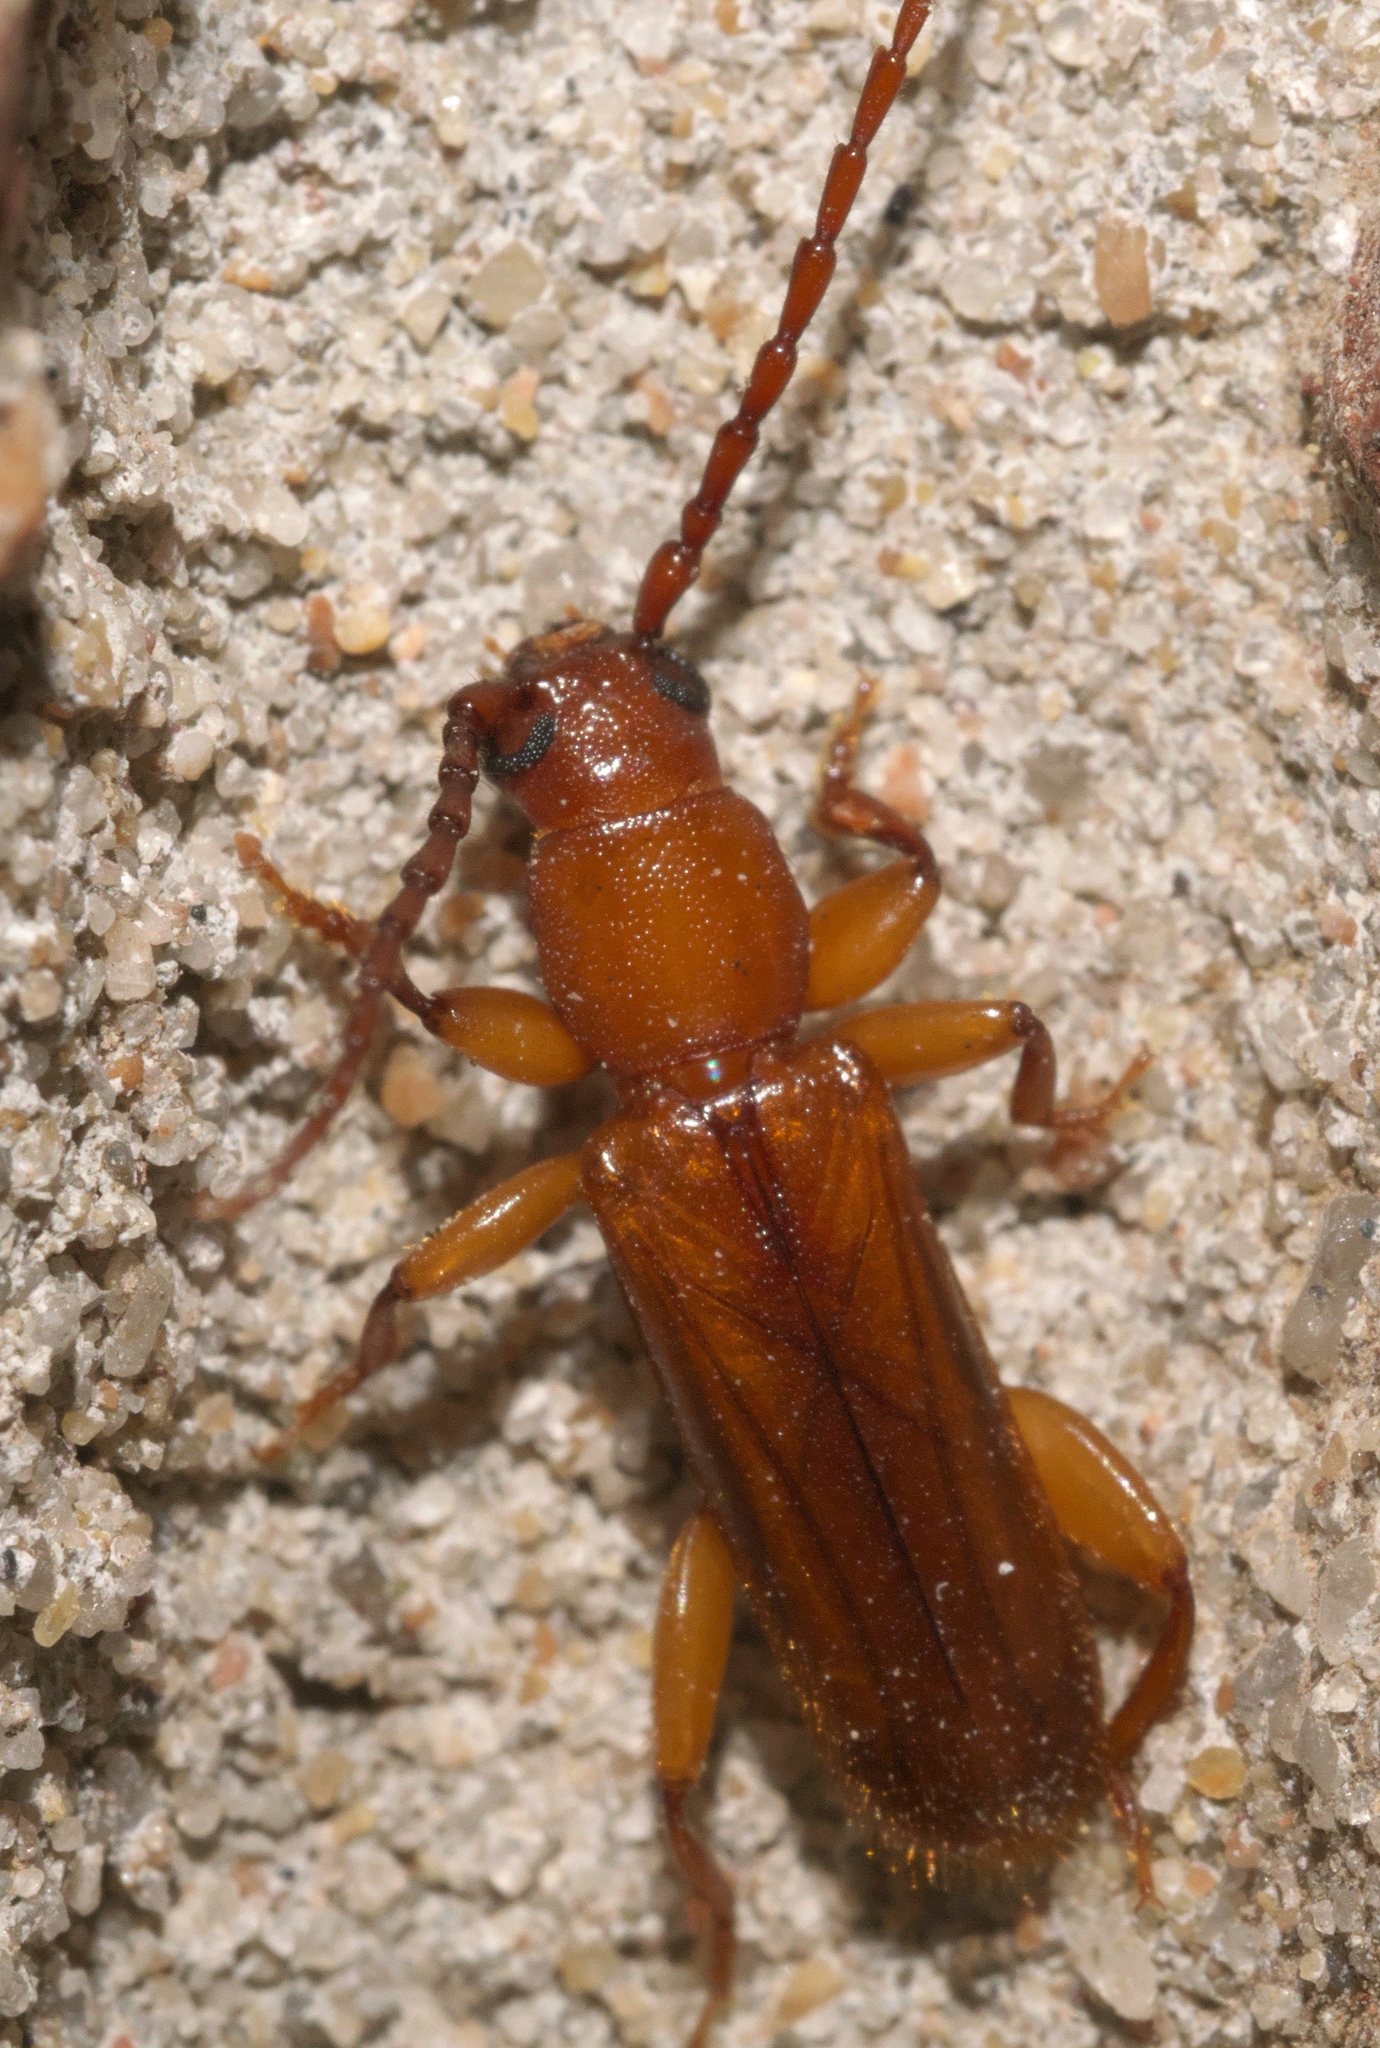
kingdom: Animalia
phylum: Arthropoda
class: Insecta
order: Coleoptera
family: Cerambycidae
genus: Smodicum
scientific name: Smodicum cucujiforme
